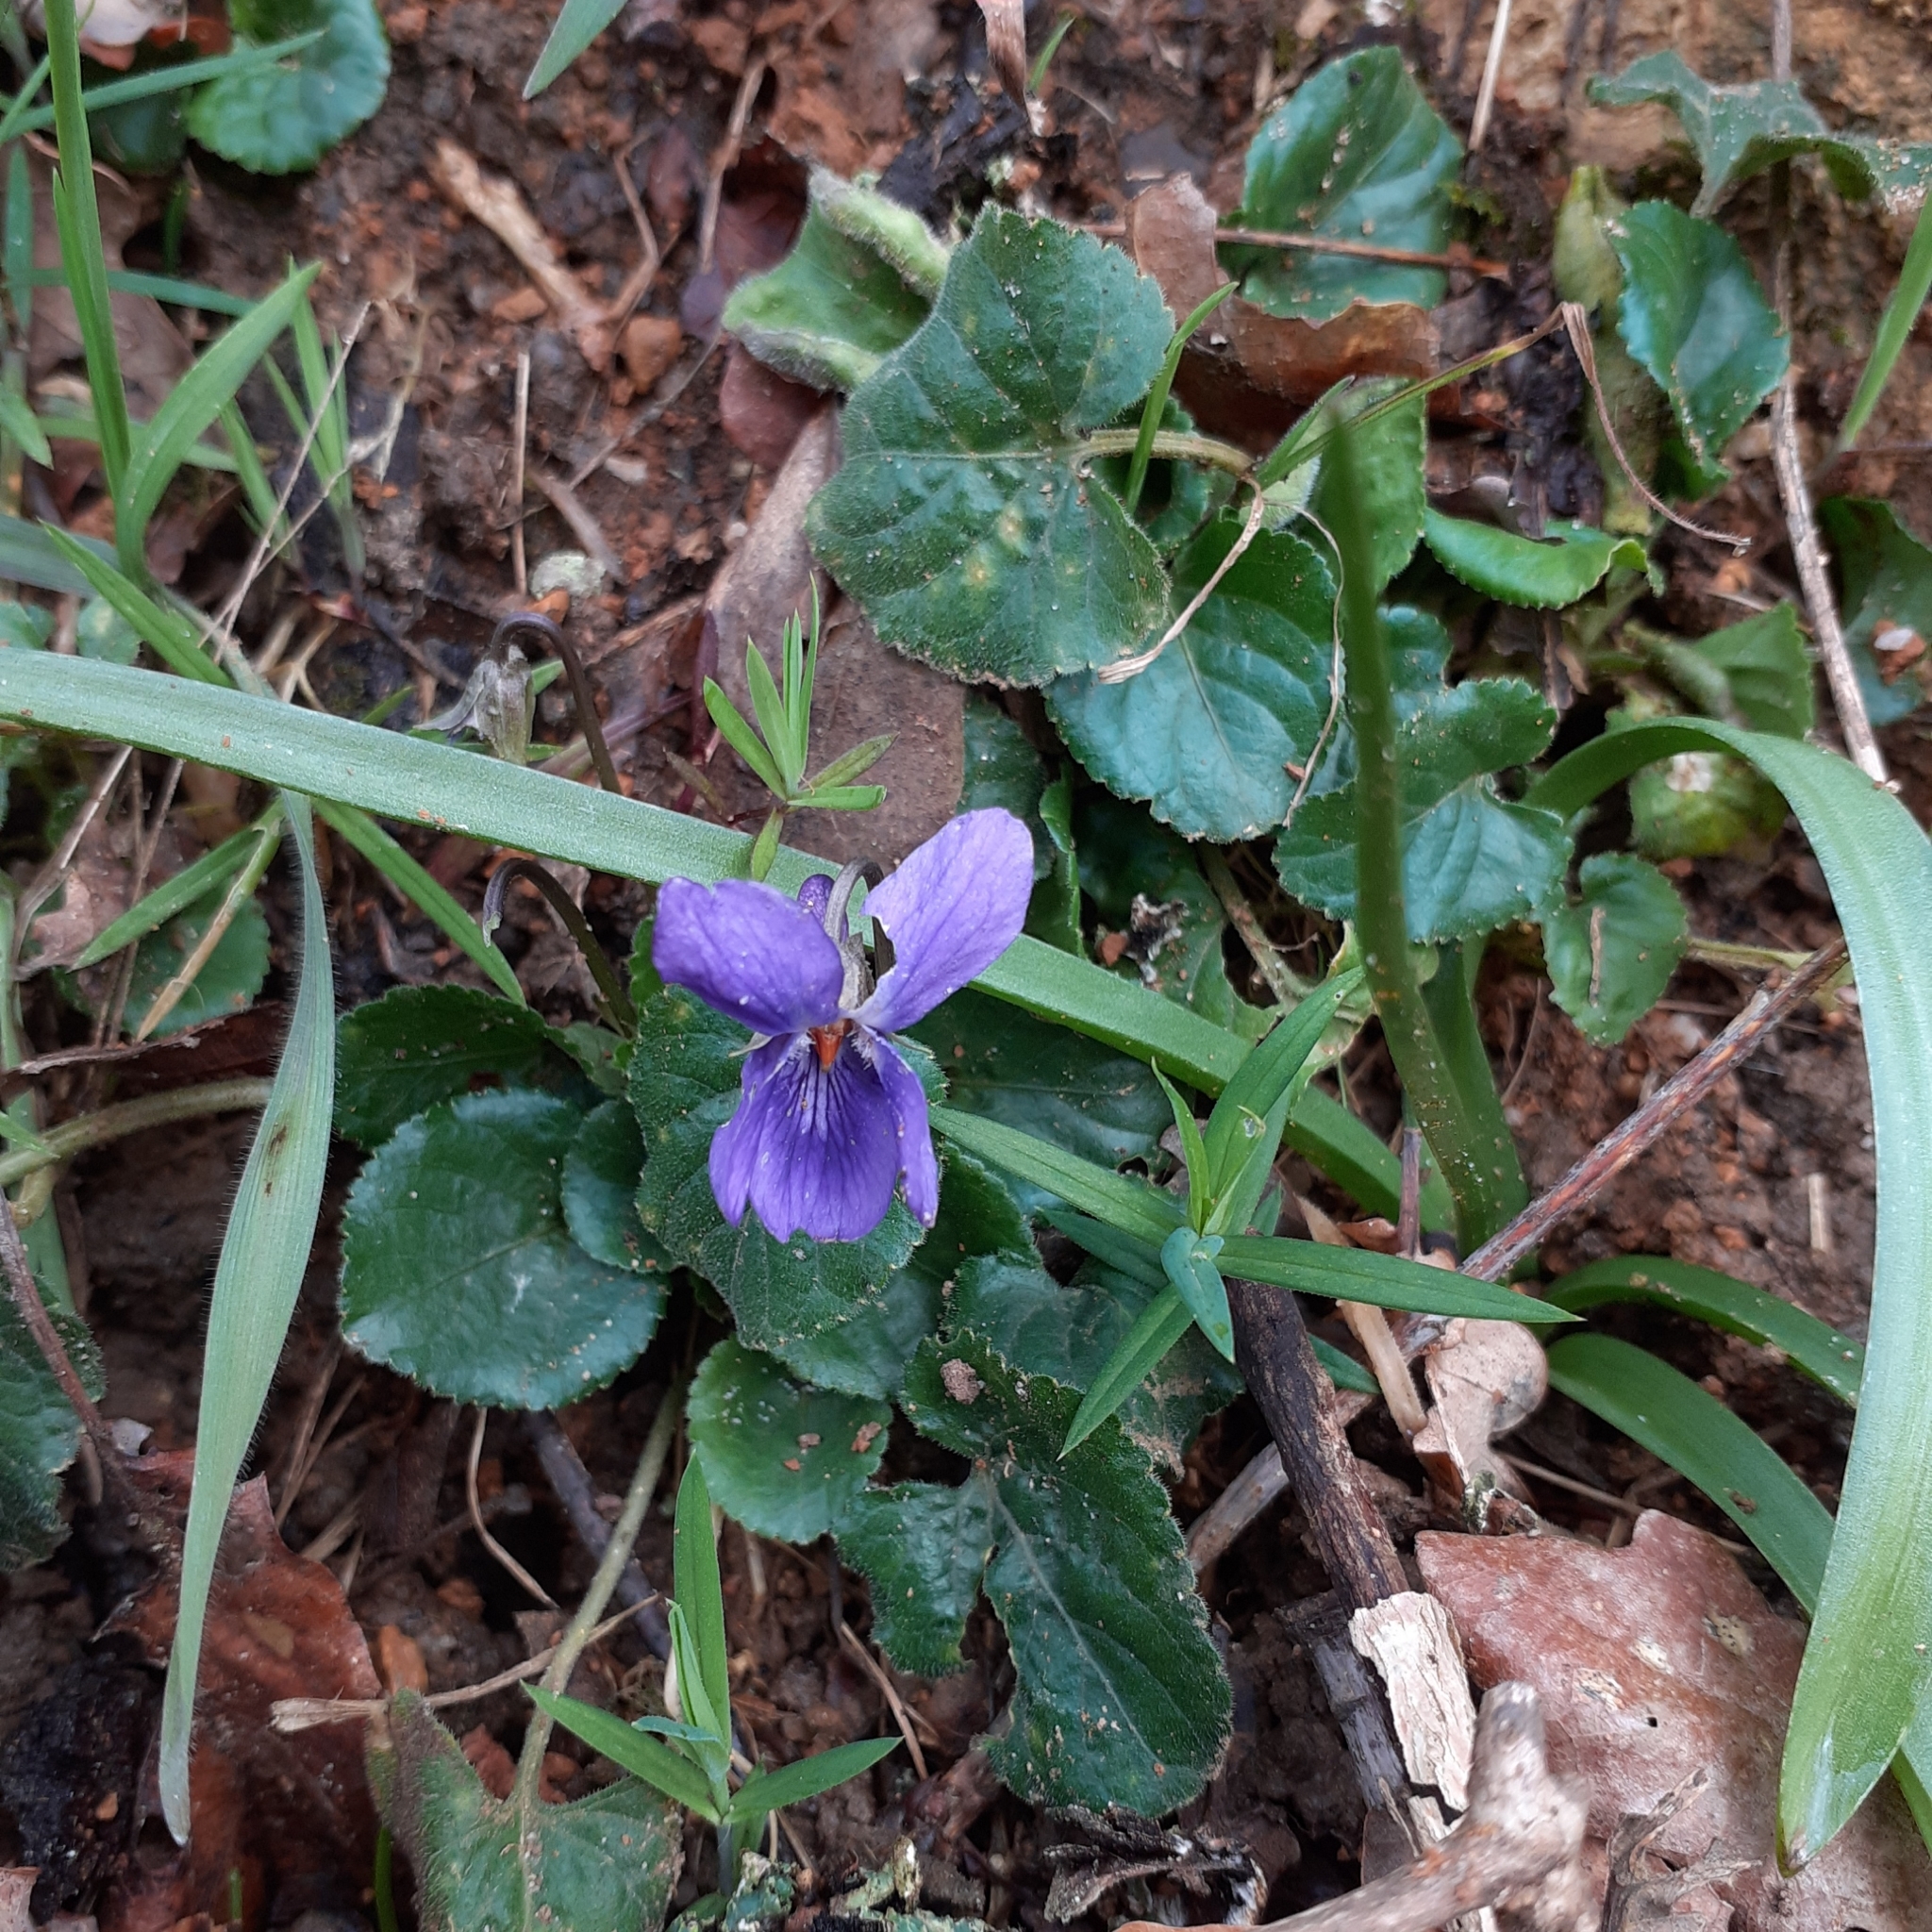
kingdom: Plantae
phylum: Tracheophyta
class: Magnoliopsida
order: Malpighiales
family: Violaceae
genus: Viola
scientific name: Viola odorata
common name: Sweet violet
